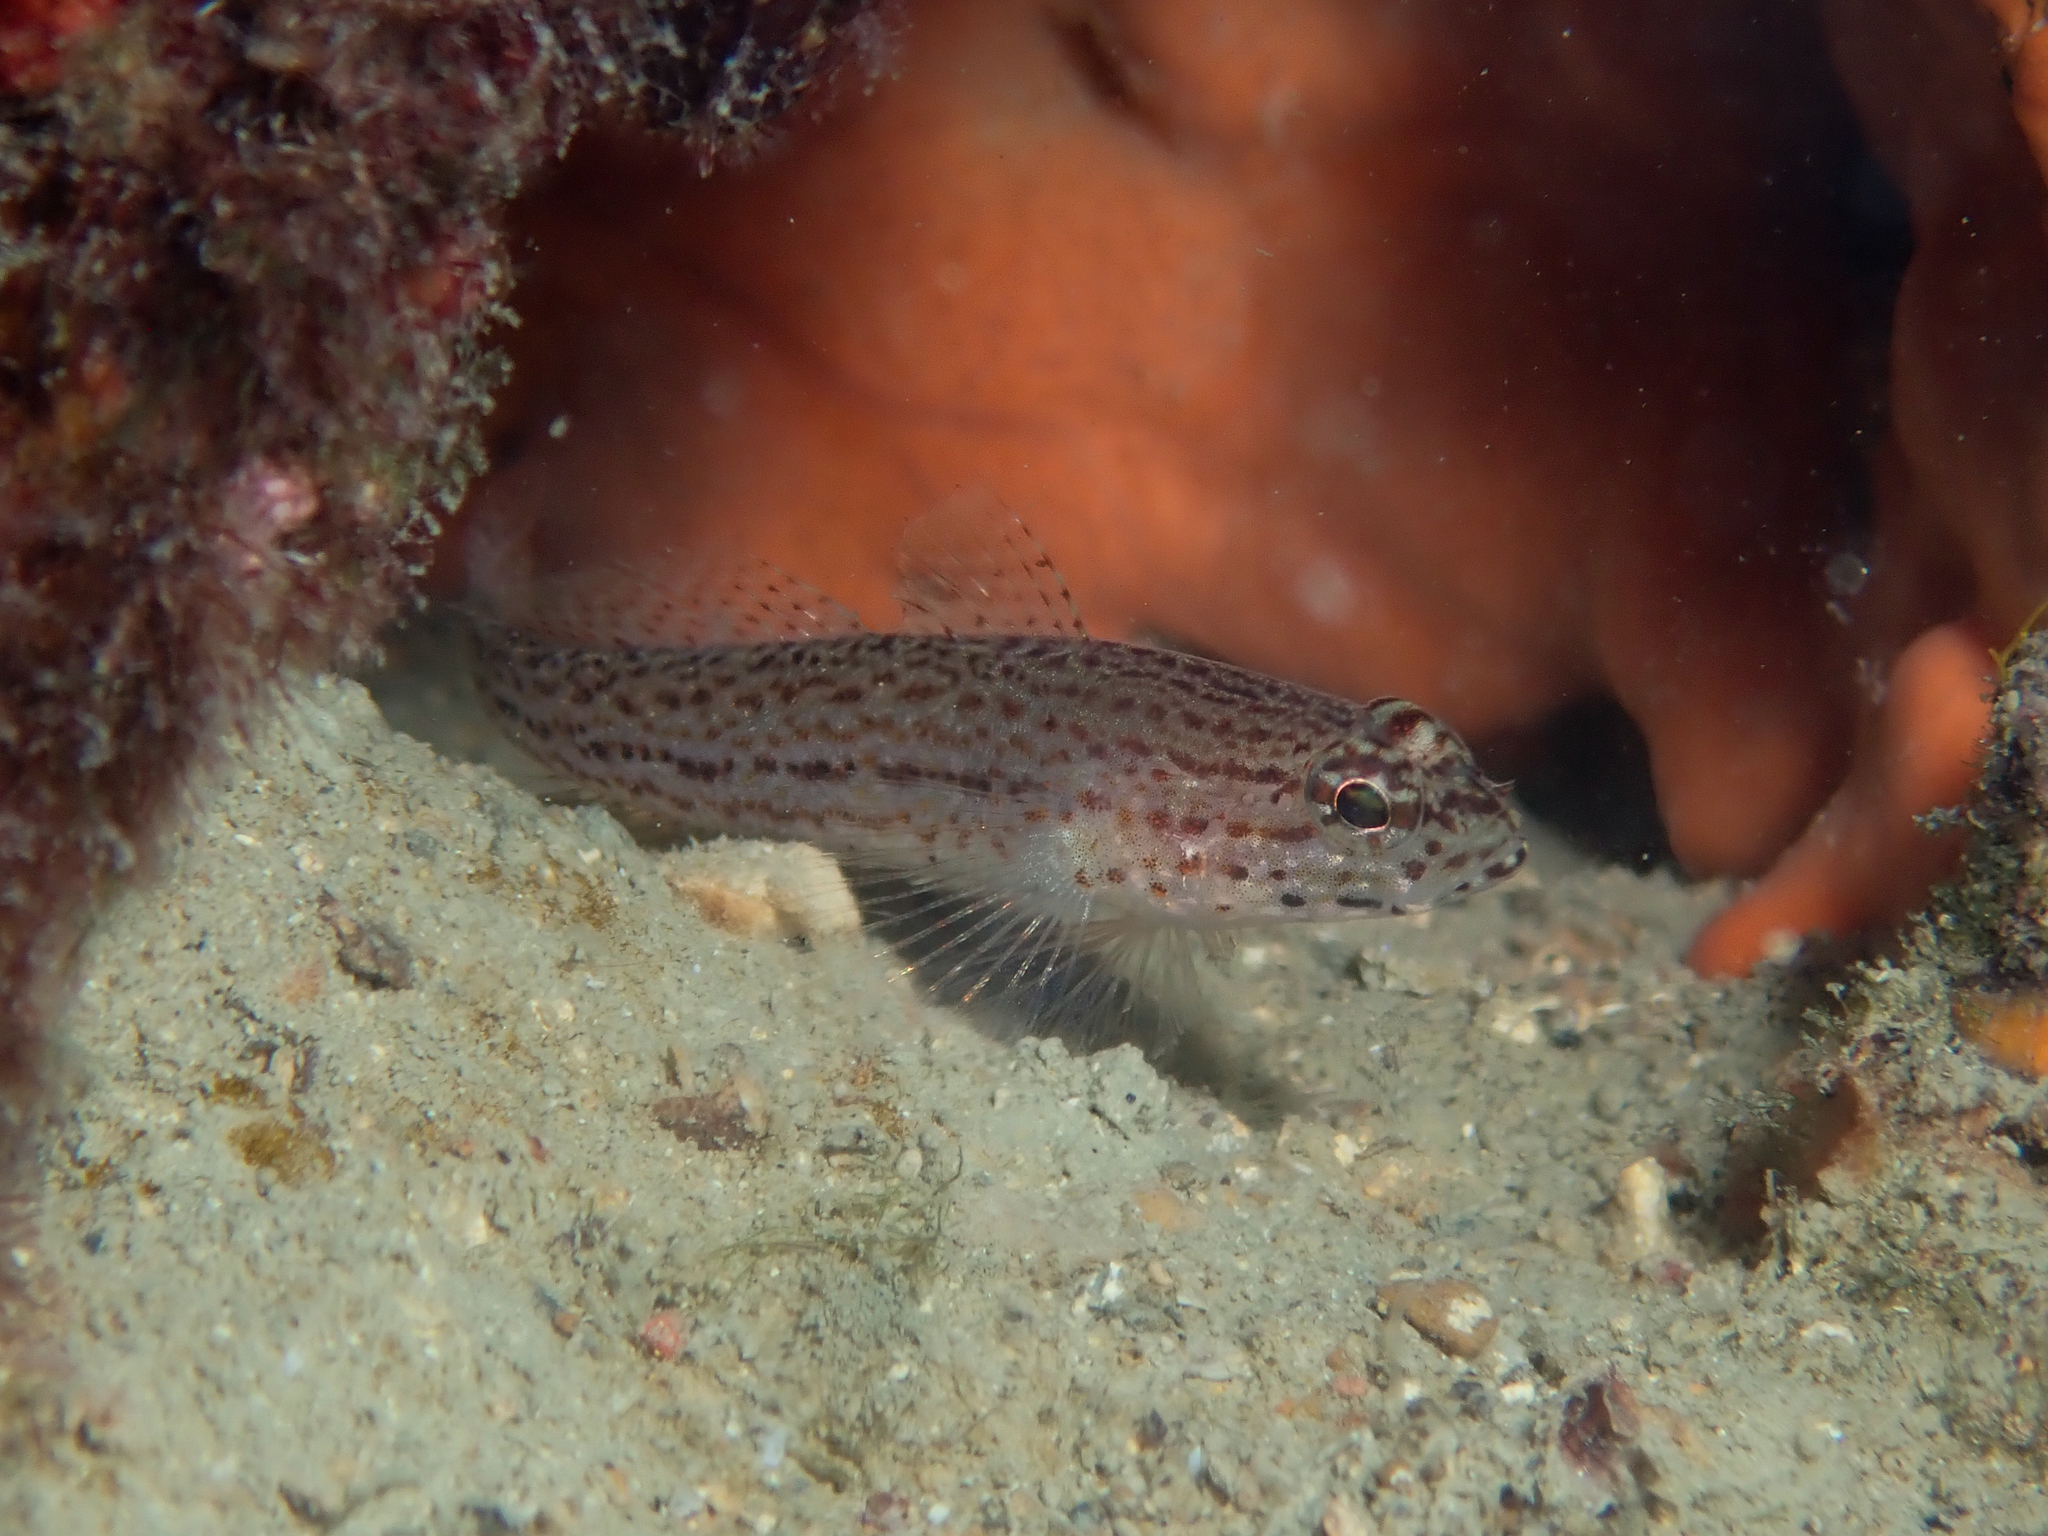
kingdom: Animalia
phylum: Chordata
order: Perciformes
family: Gobiidae
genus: Gobius
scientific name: Gobius fallax
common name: Sarato's goby
